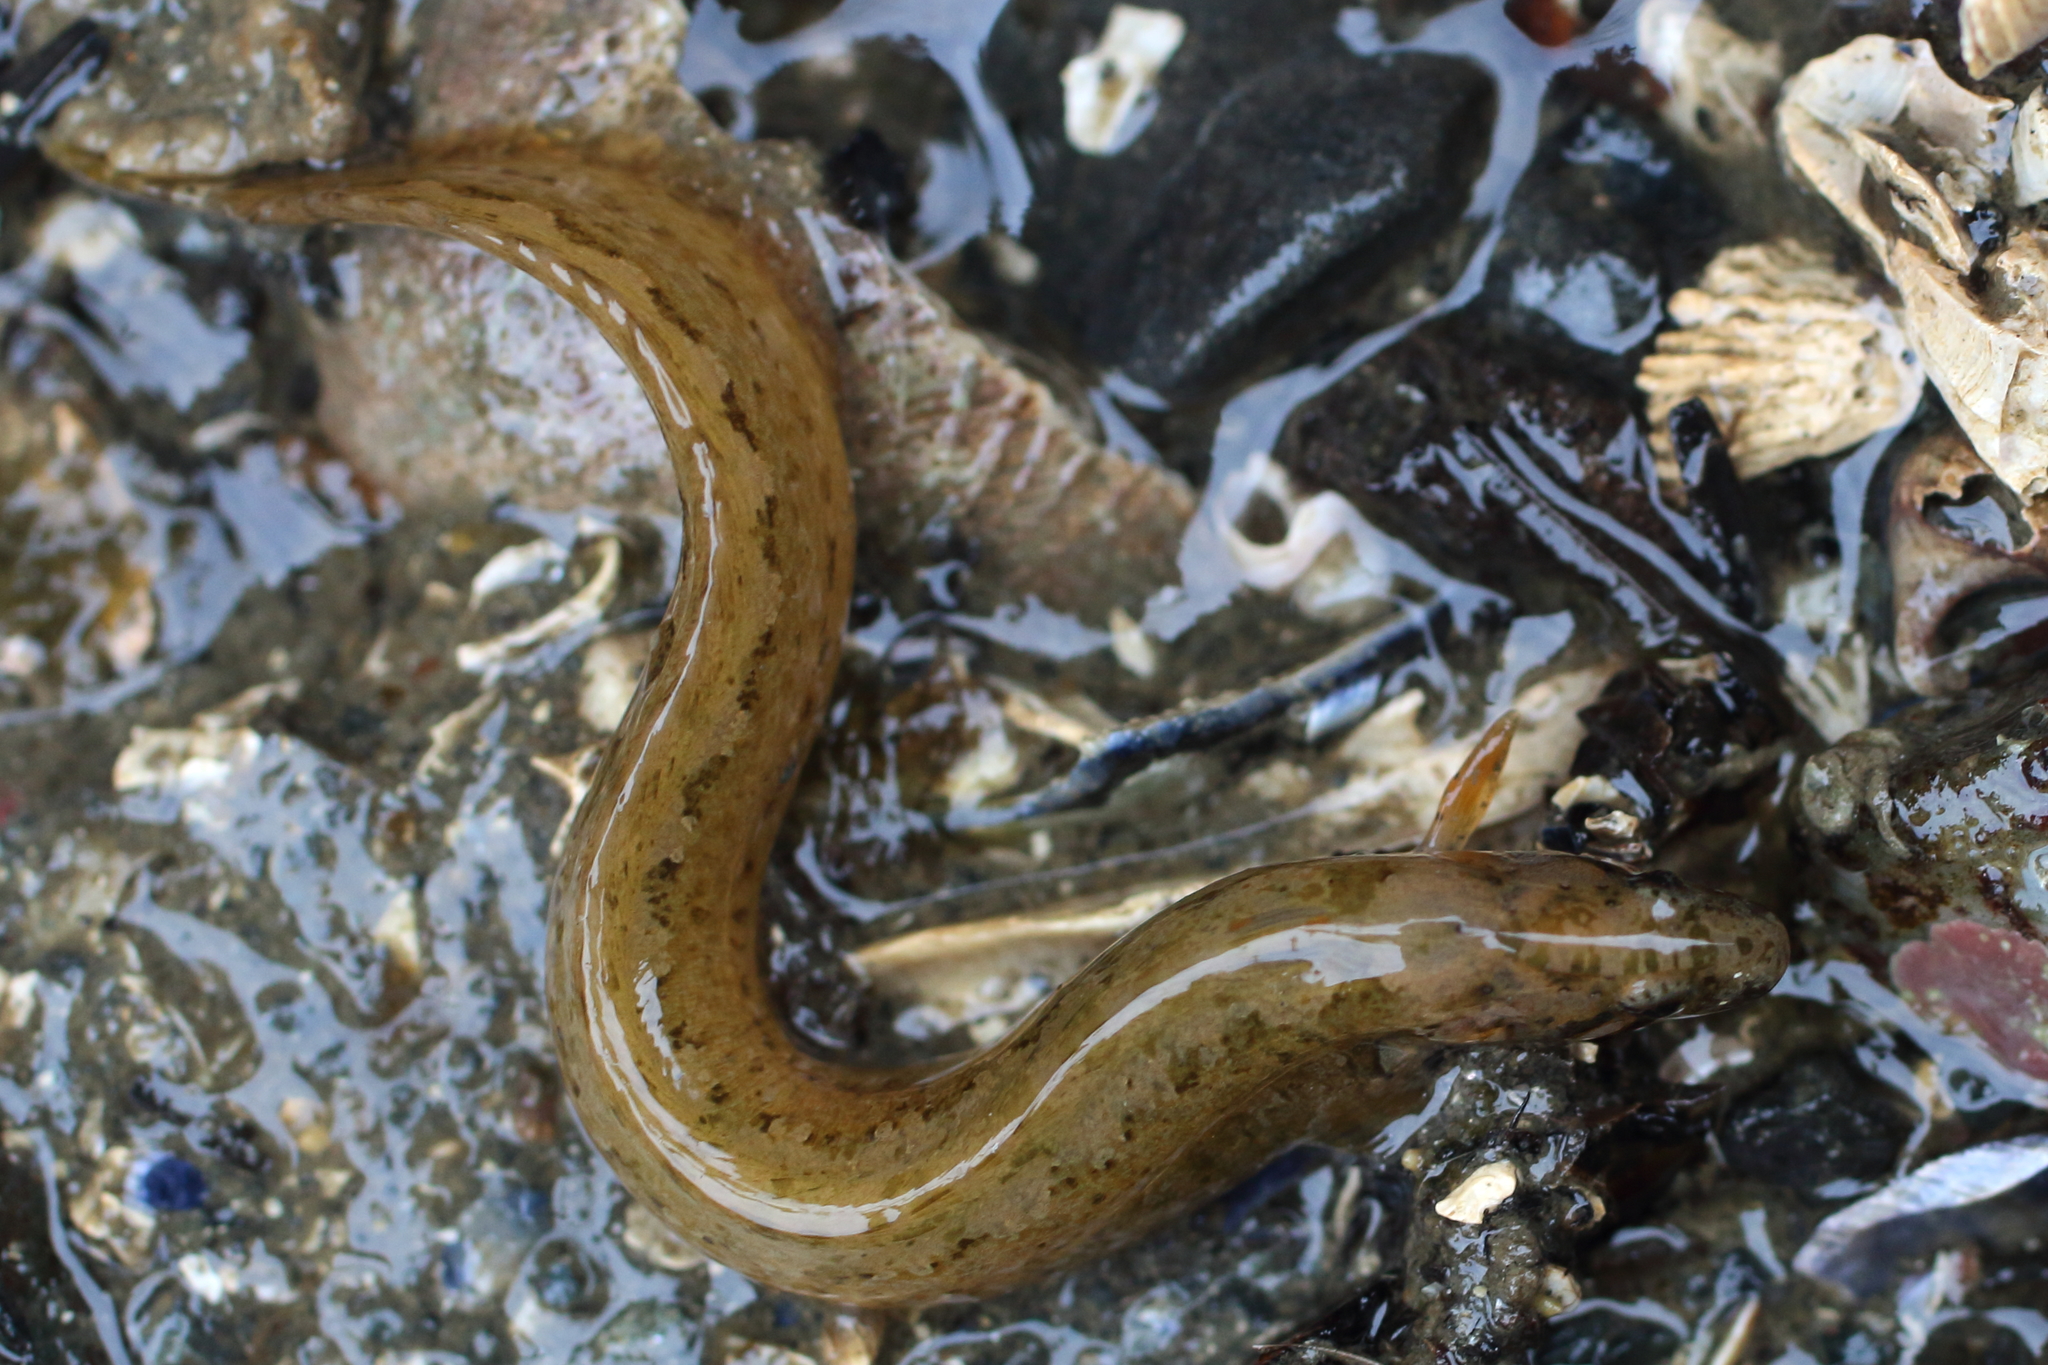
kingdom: Animalia
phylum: Chordata
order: Perciformes
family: Stichaeidae
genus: Anoplarchus
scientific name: Anoplarchus purpurescens
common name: High cockscomb
